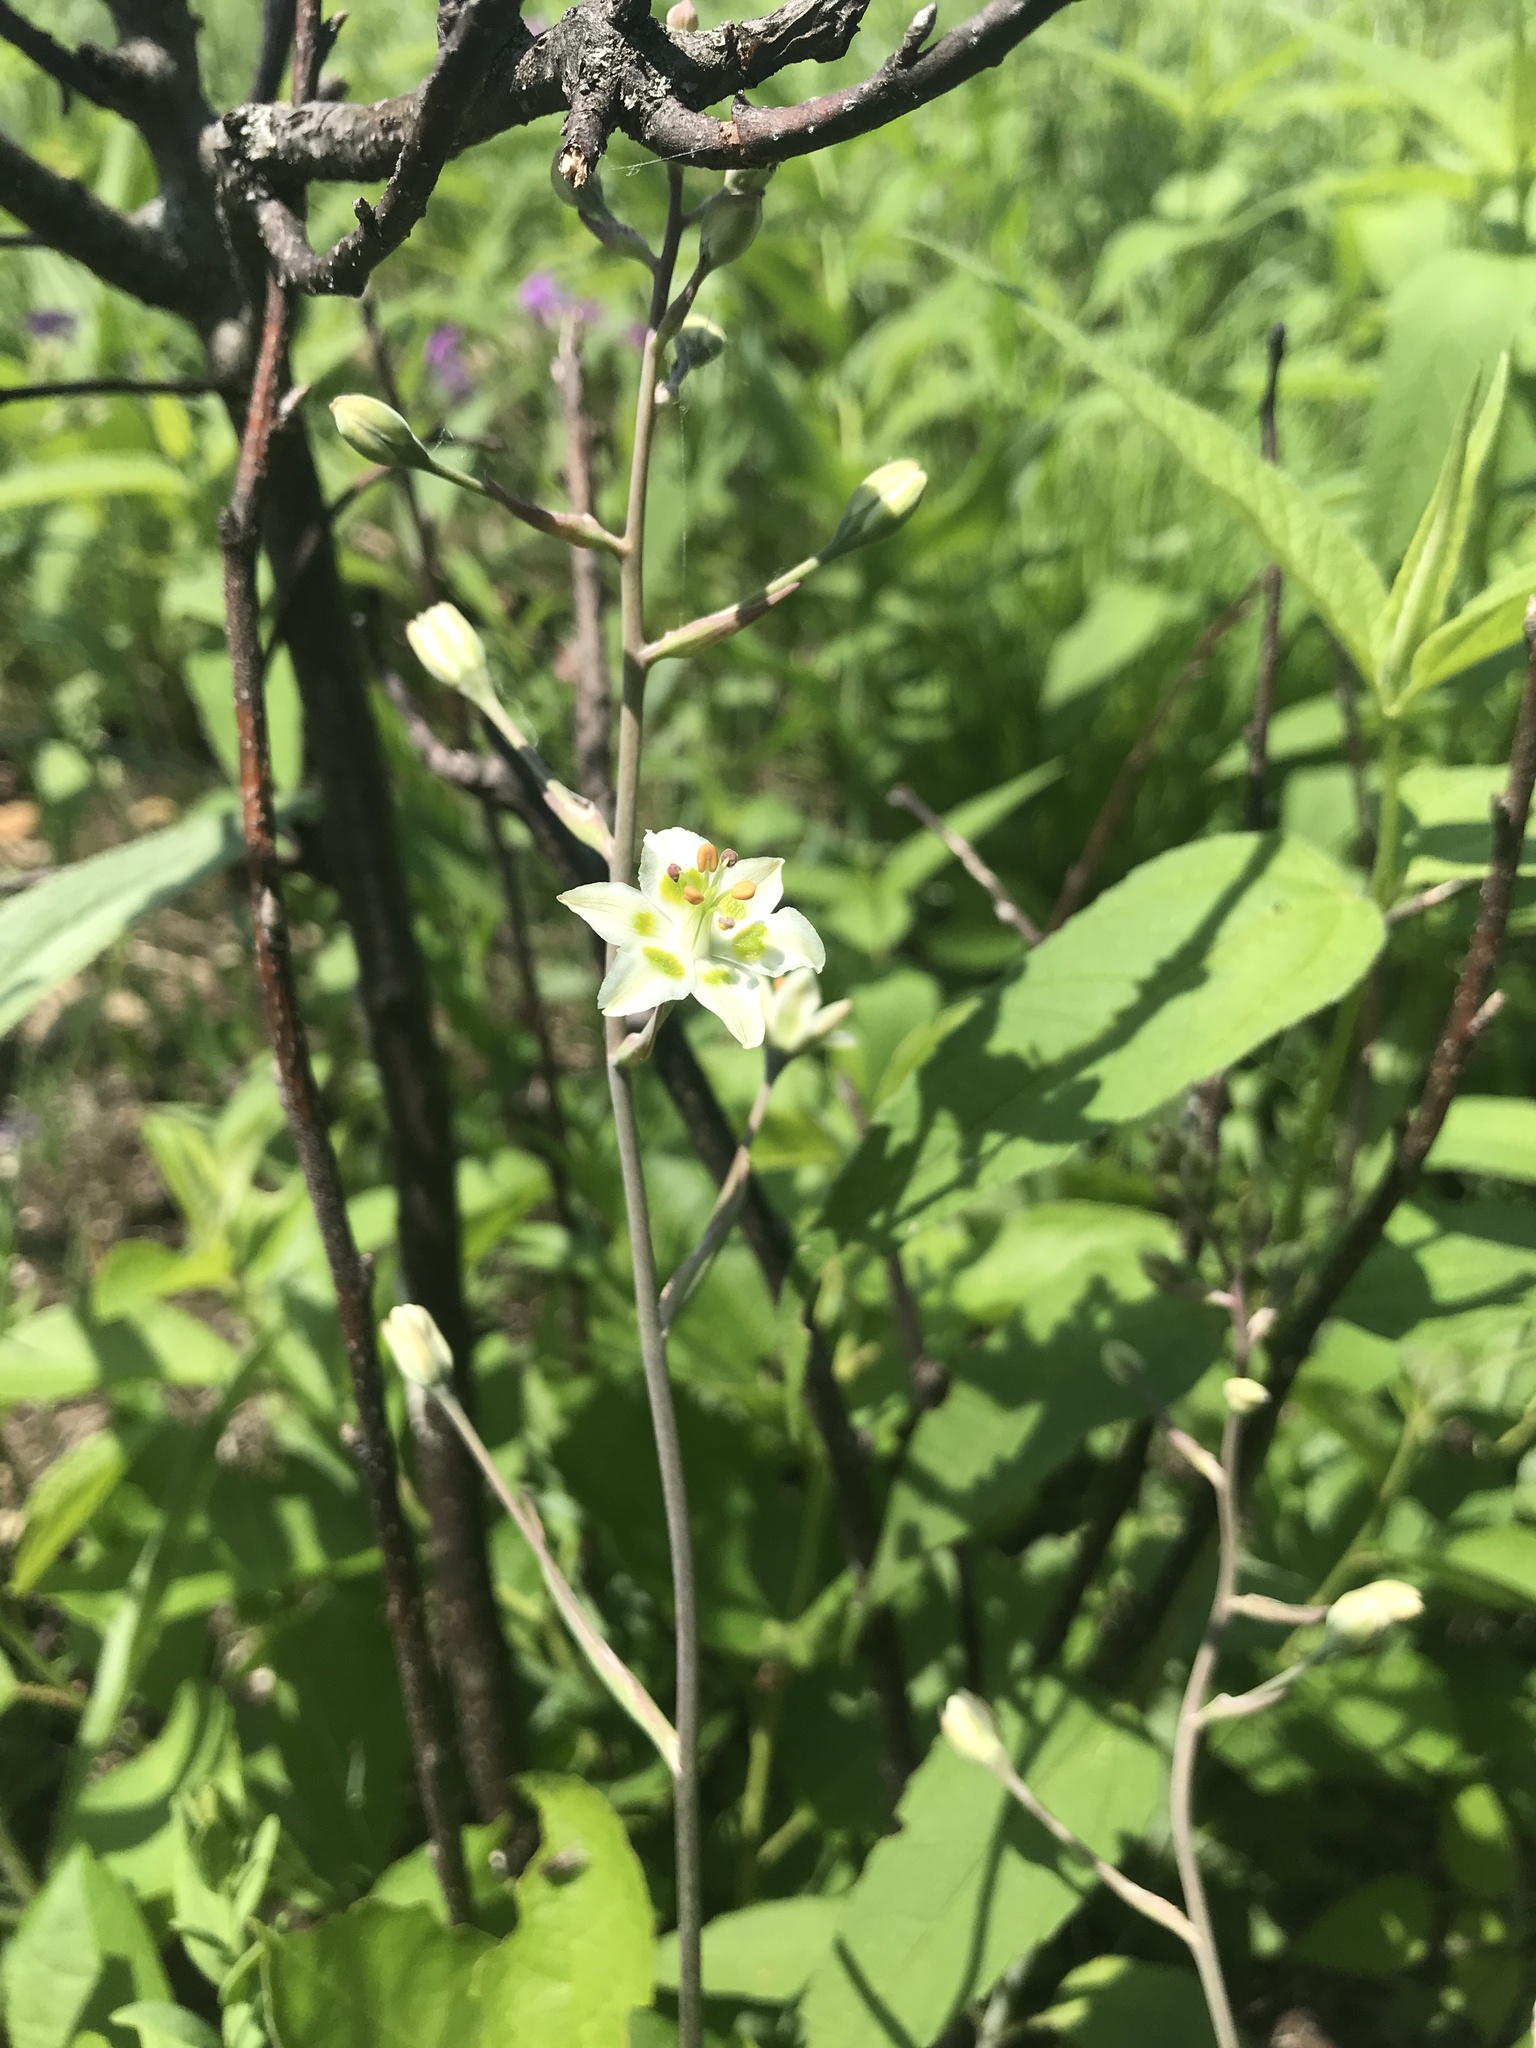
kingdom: Plantae
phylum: Tracheophyta
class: Liliopsida
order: Liliales
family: Melanthiaceae
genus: Anticlea
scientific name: Anticlea elegans
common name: Mountain death camas
